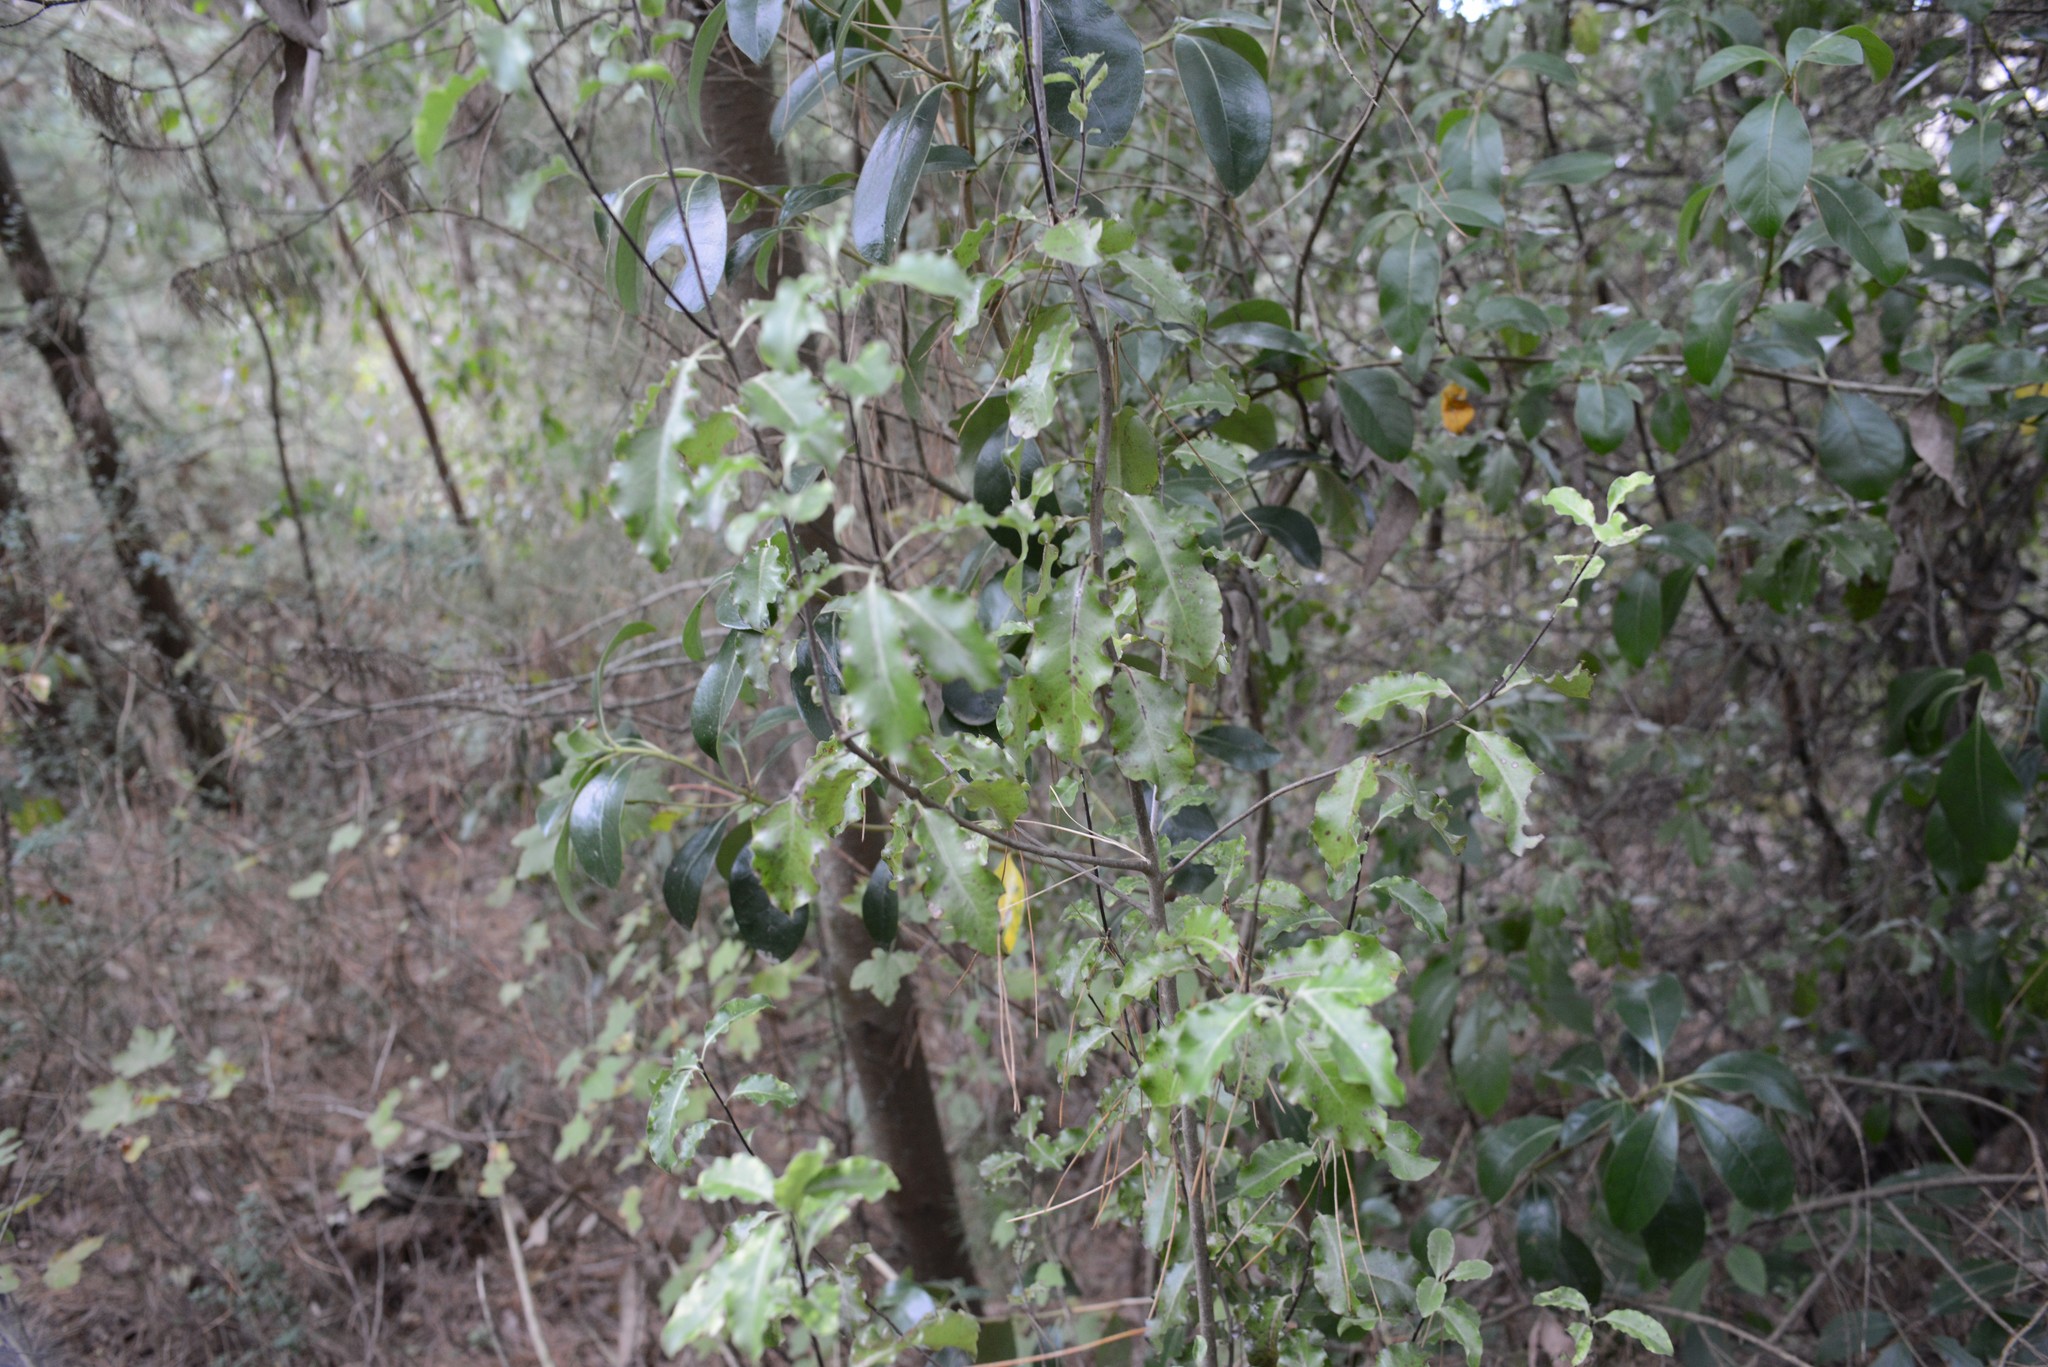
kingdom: Plantae
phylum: Tracheophyta
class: Magnoliopsida
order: Apiales
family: Pittosporaceae
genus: Pittosporum
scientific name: Pittosporum tenuifolium
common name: Kohuhu
